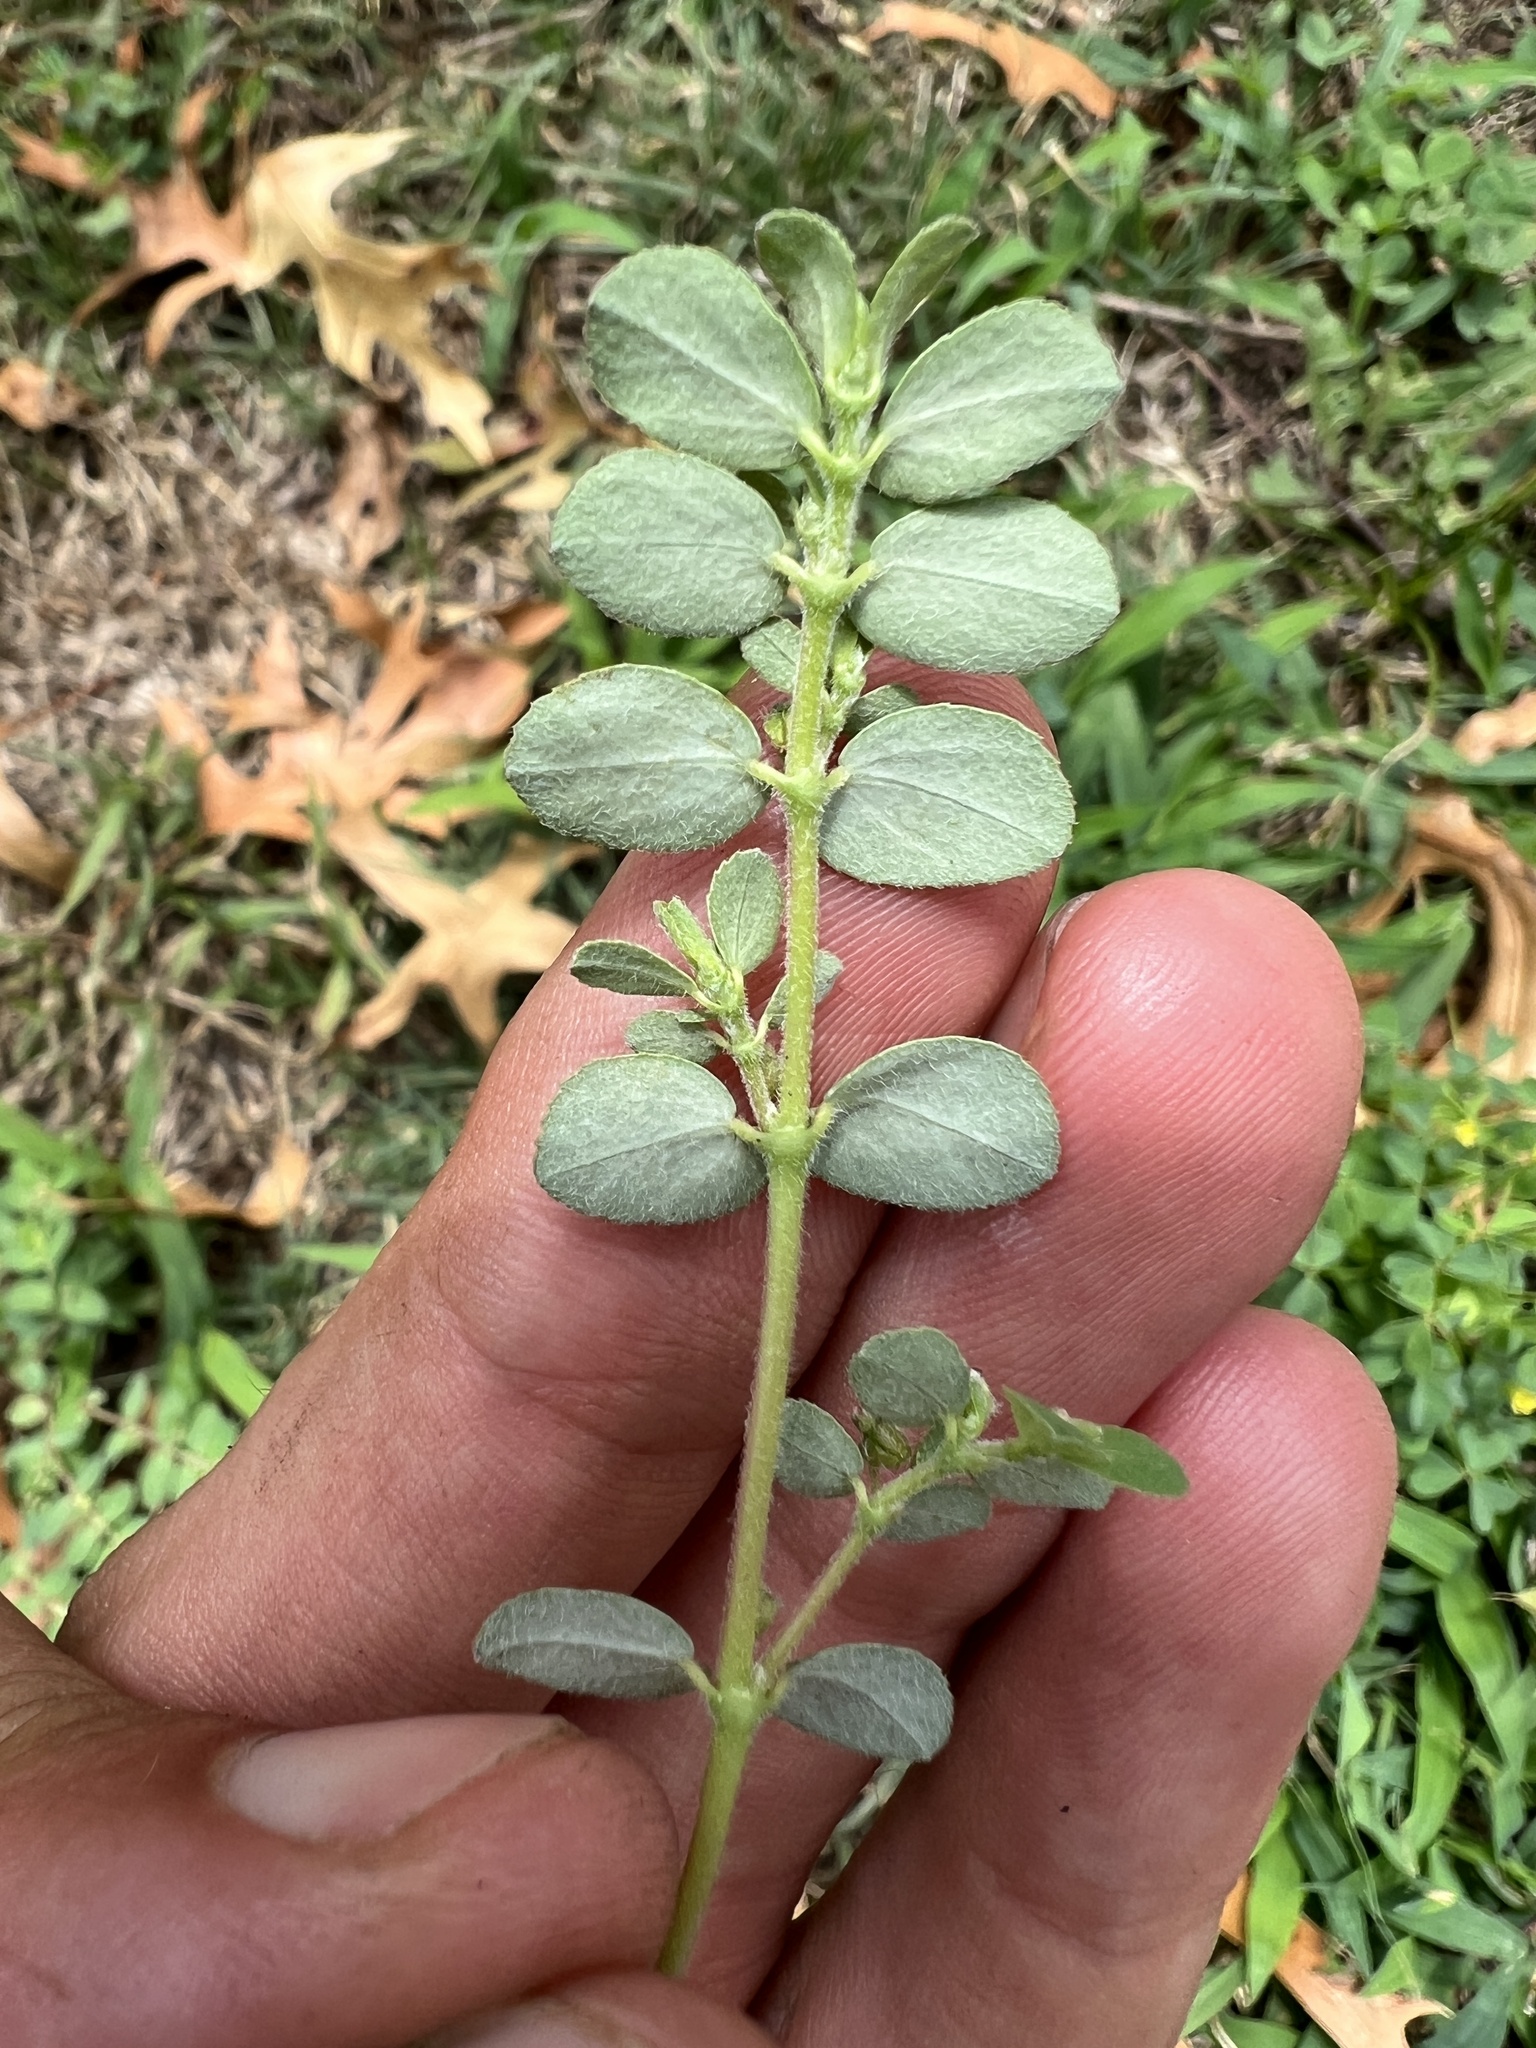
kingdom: Plantae
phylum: Tracheophyta
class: Magnoliopsida
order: Malpighiales
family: Euphorbiaceae
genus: Euphorbia
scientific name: Euphorbia prostrata
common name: Prostrate sandmat
